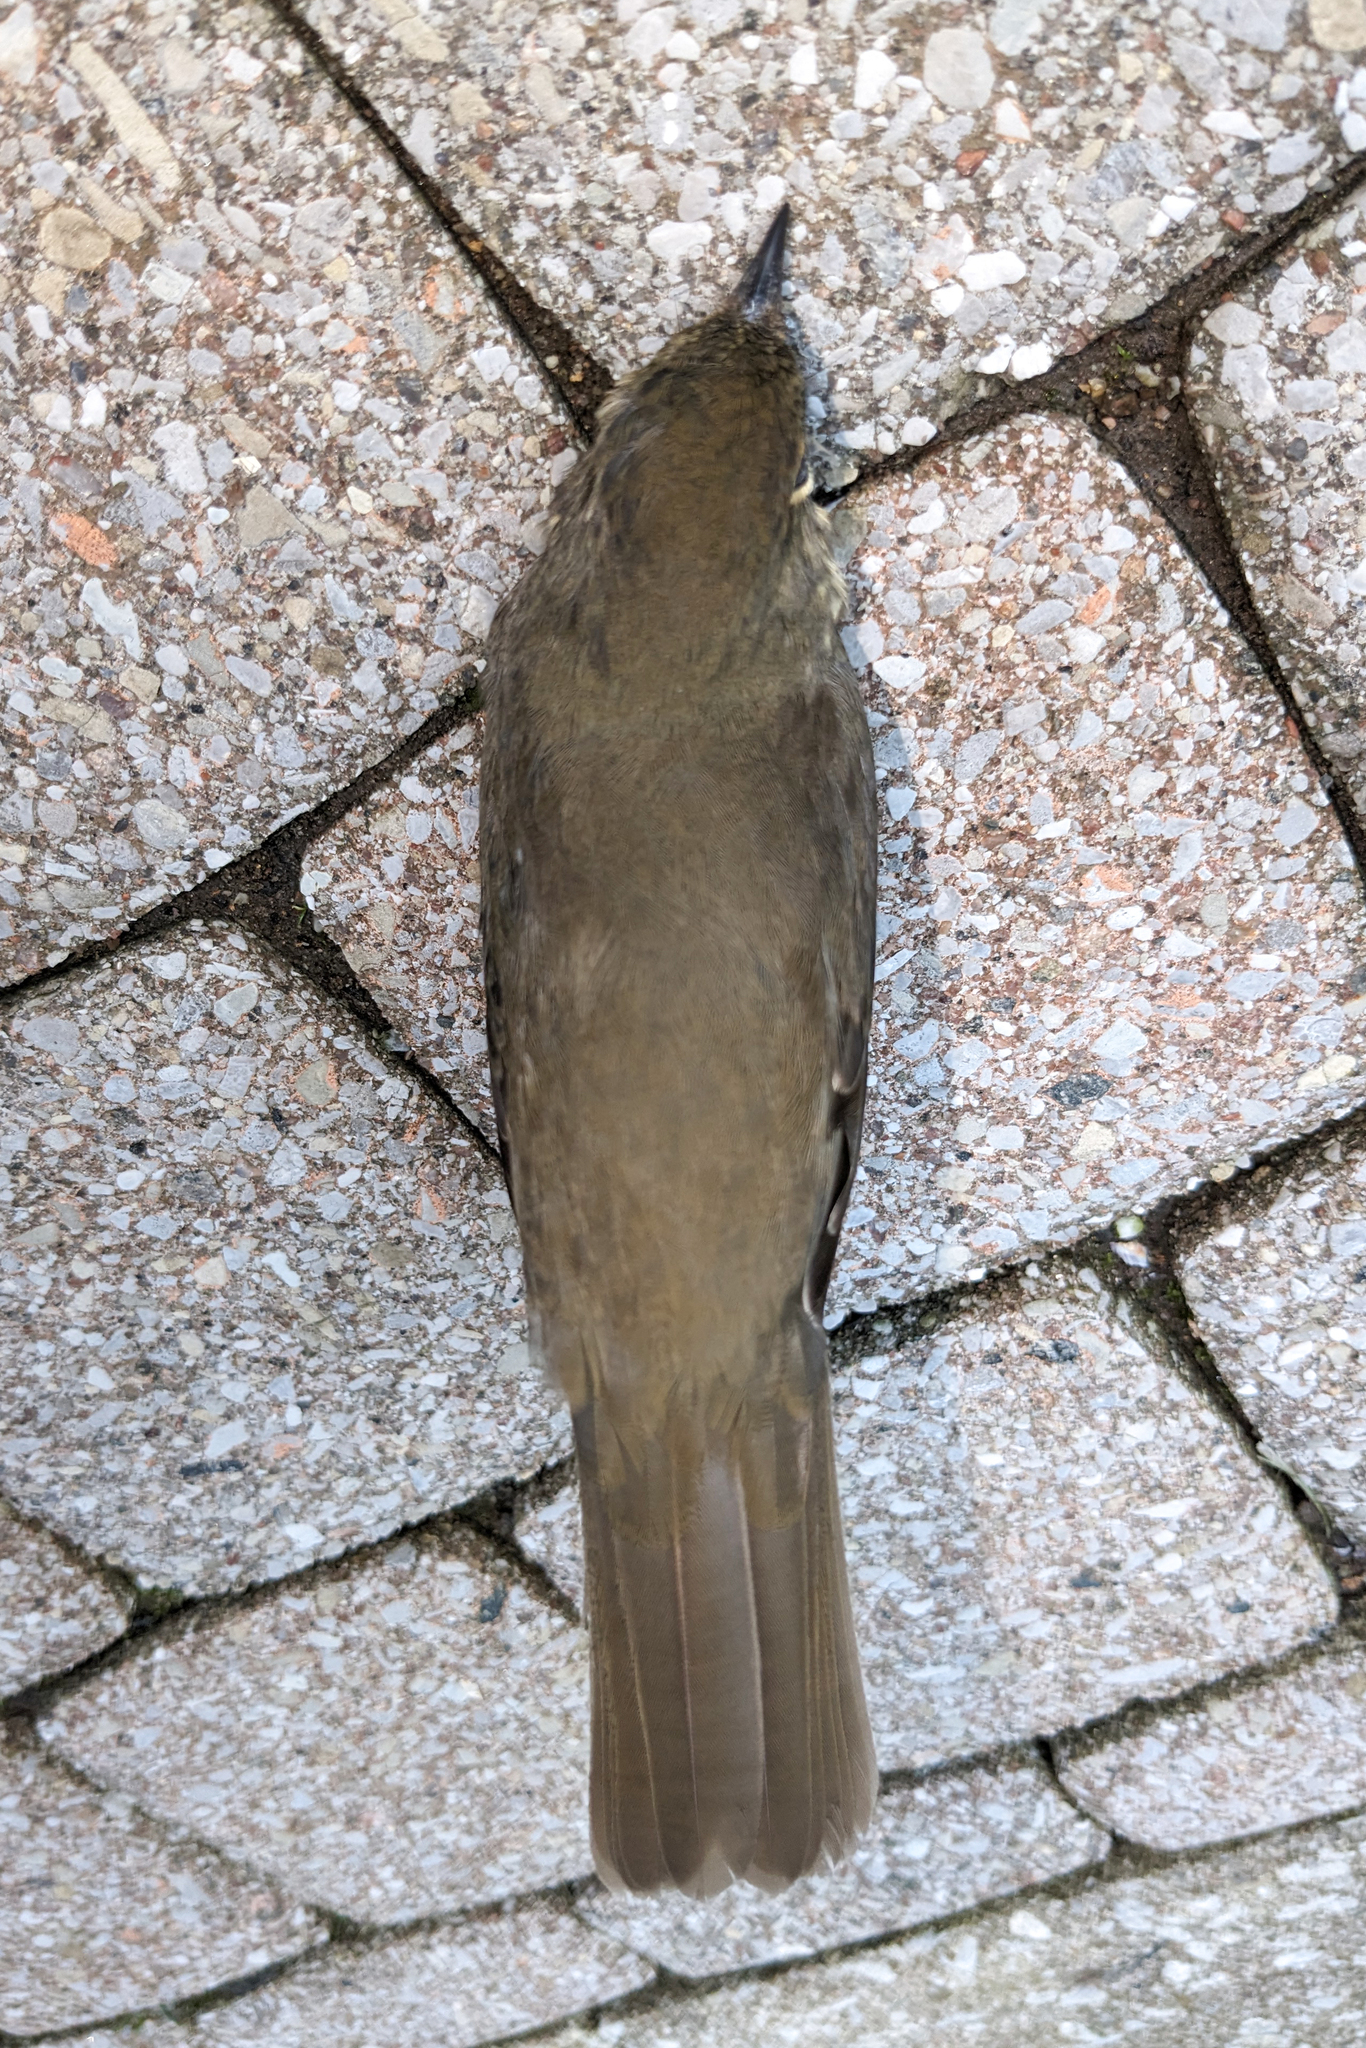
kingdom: Animalia
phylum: Chordata
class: Aves
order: Passeriformes
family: Turdidae
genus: Catharus
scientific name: Catharus ustulatus
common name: Swainson's thrush
